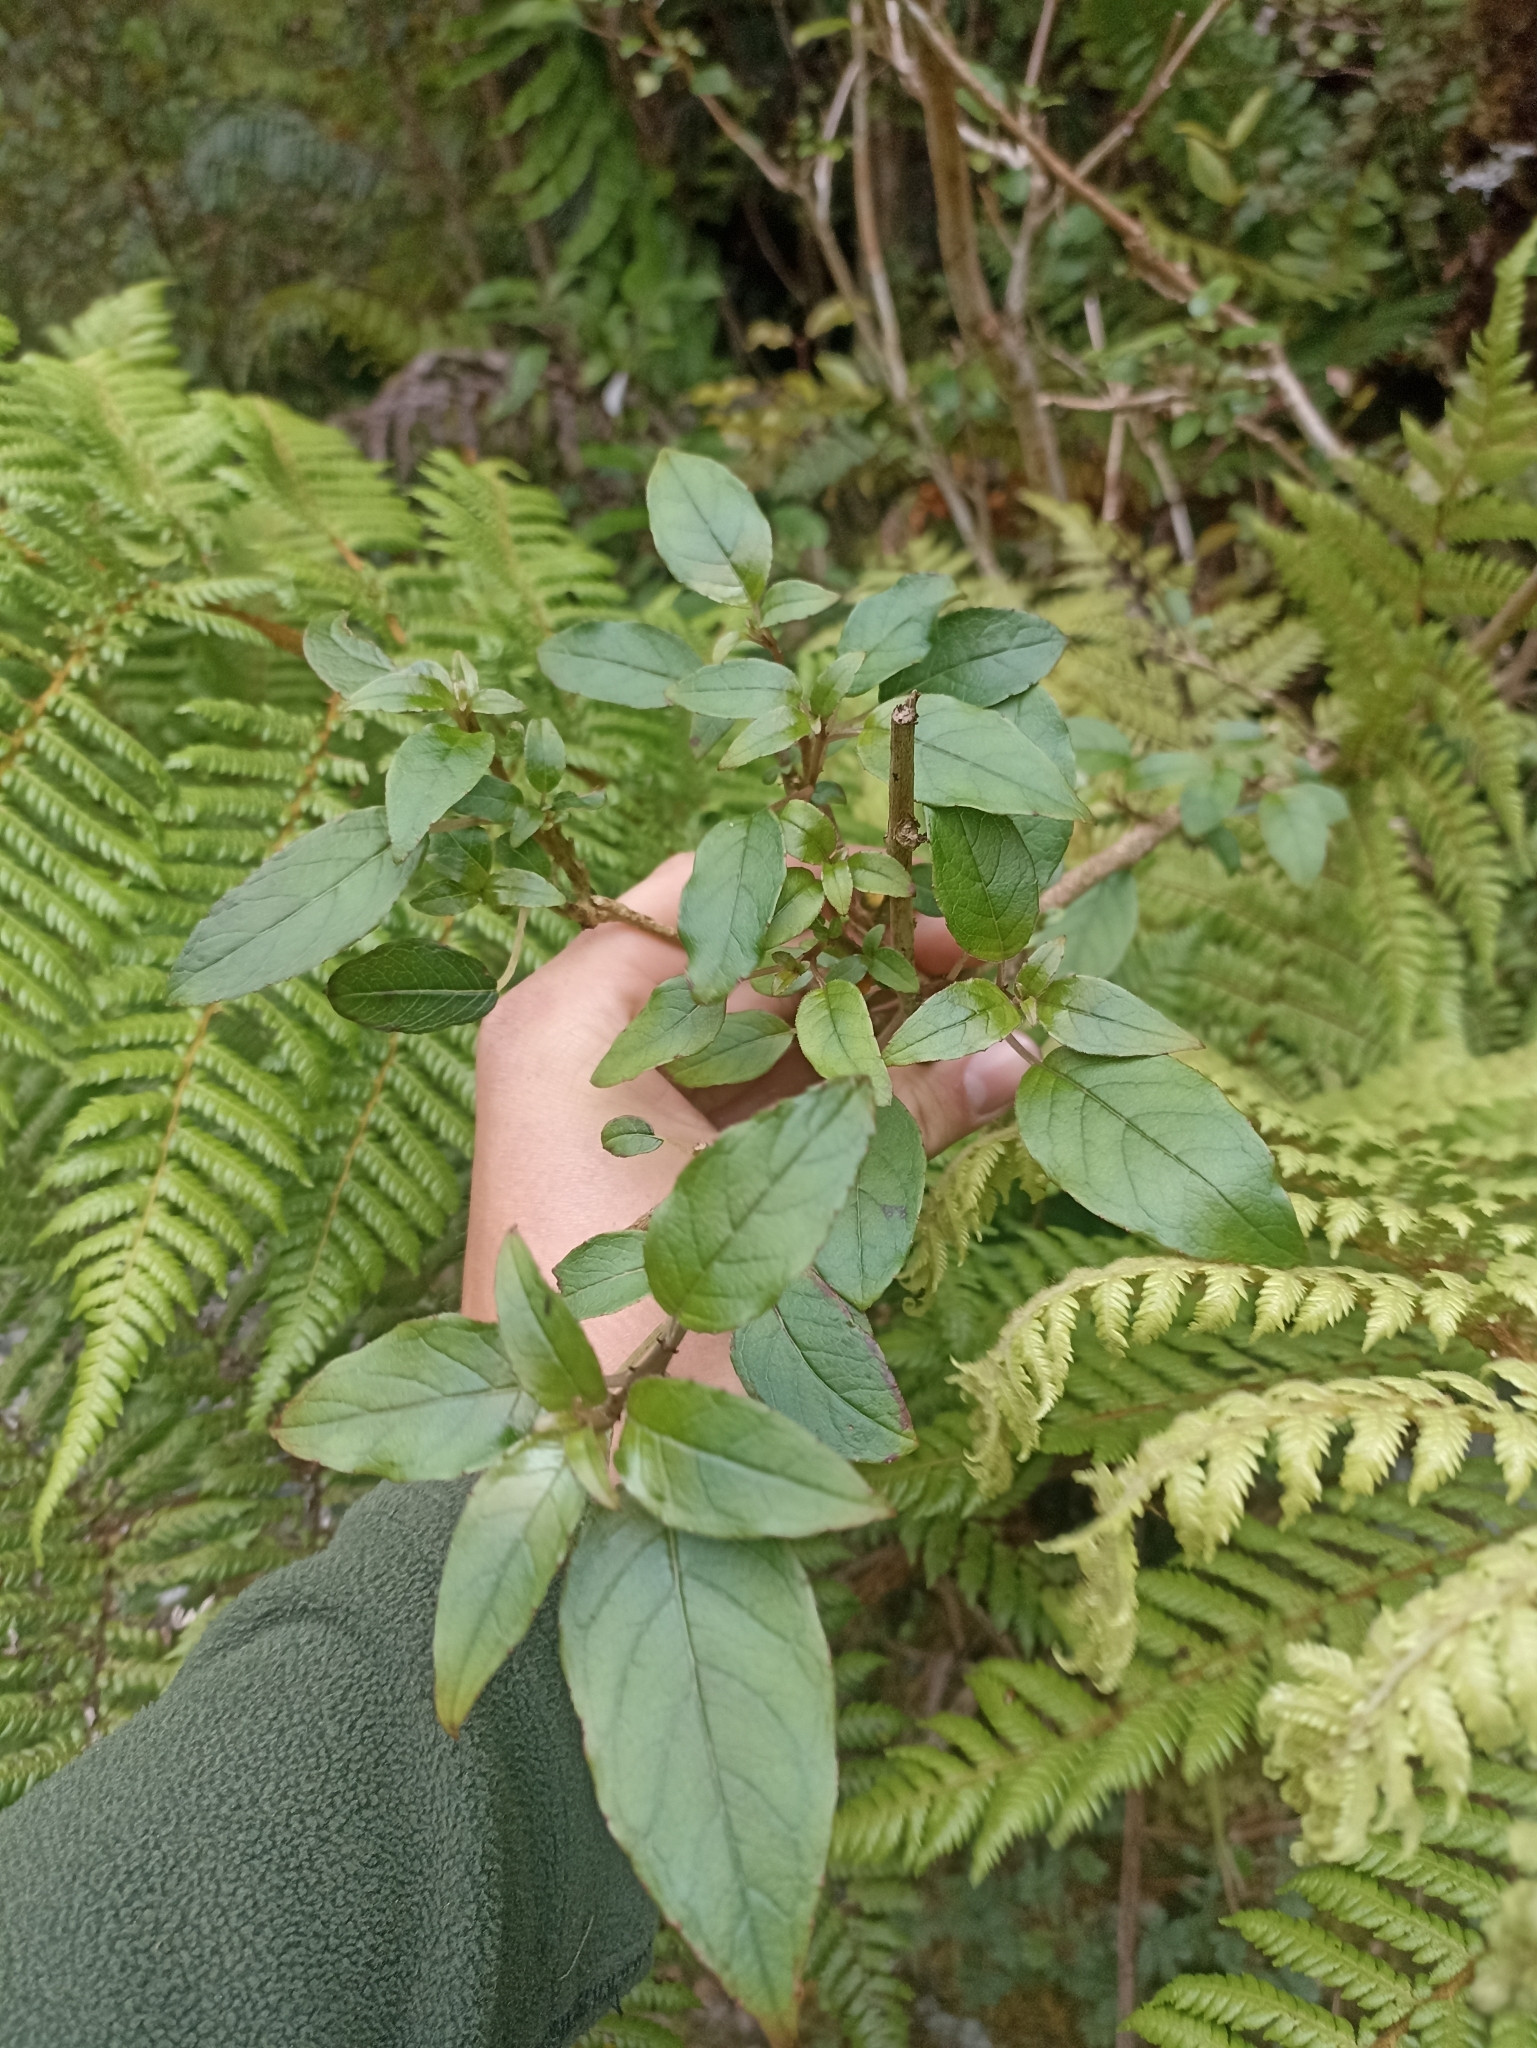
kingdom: Plantae
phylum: Tracheophyta
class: Magnoliopsida
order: Myrtales
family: Onagraceae
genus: Fuchsia
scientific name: Fuchsia excorticata
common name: Tree fuchsia
